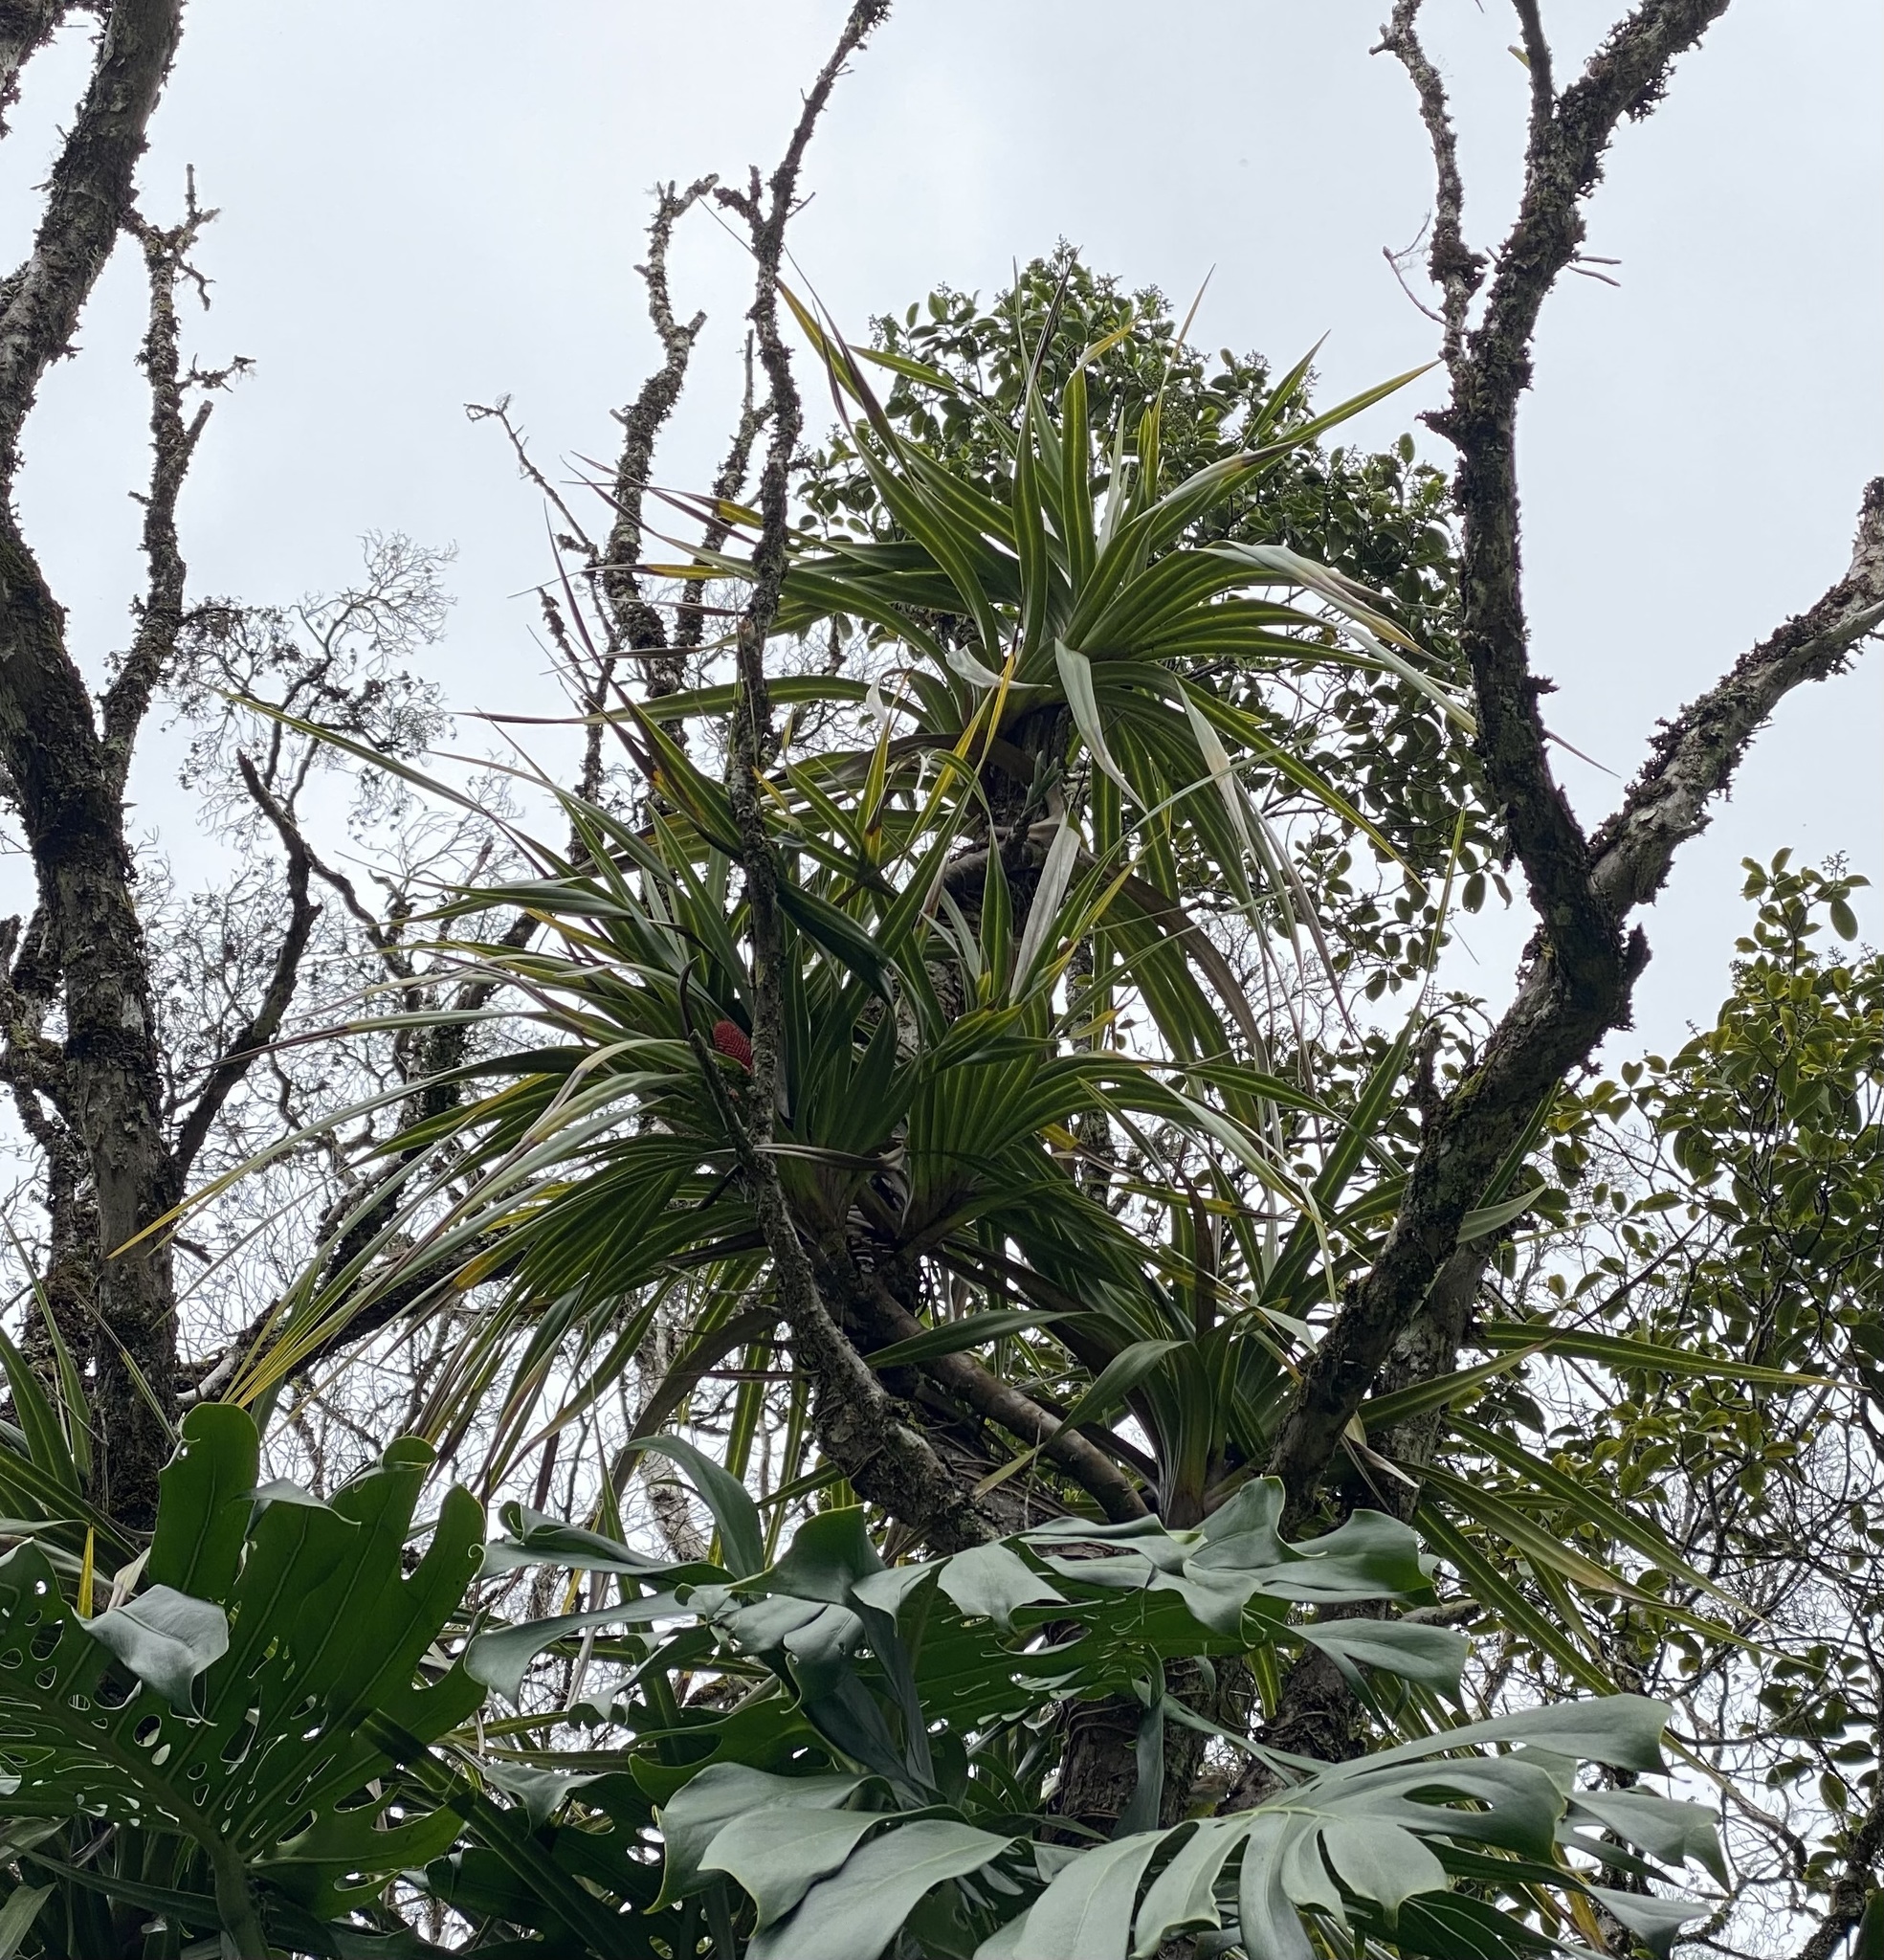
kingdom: Plantae
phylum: Tracheophyta
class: Liliopsida
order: Pandanales
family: Pandanaceae
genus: Freycinetia
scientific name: Freycinetia arborea
